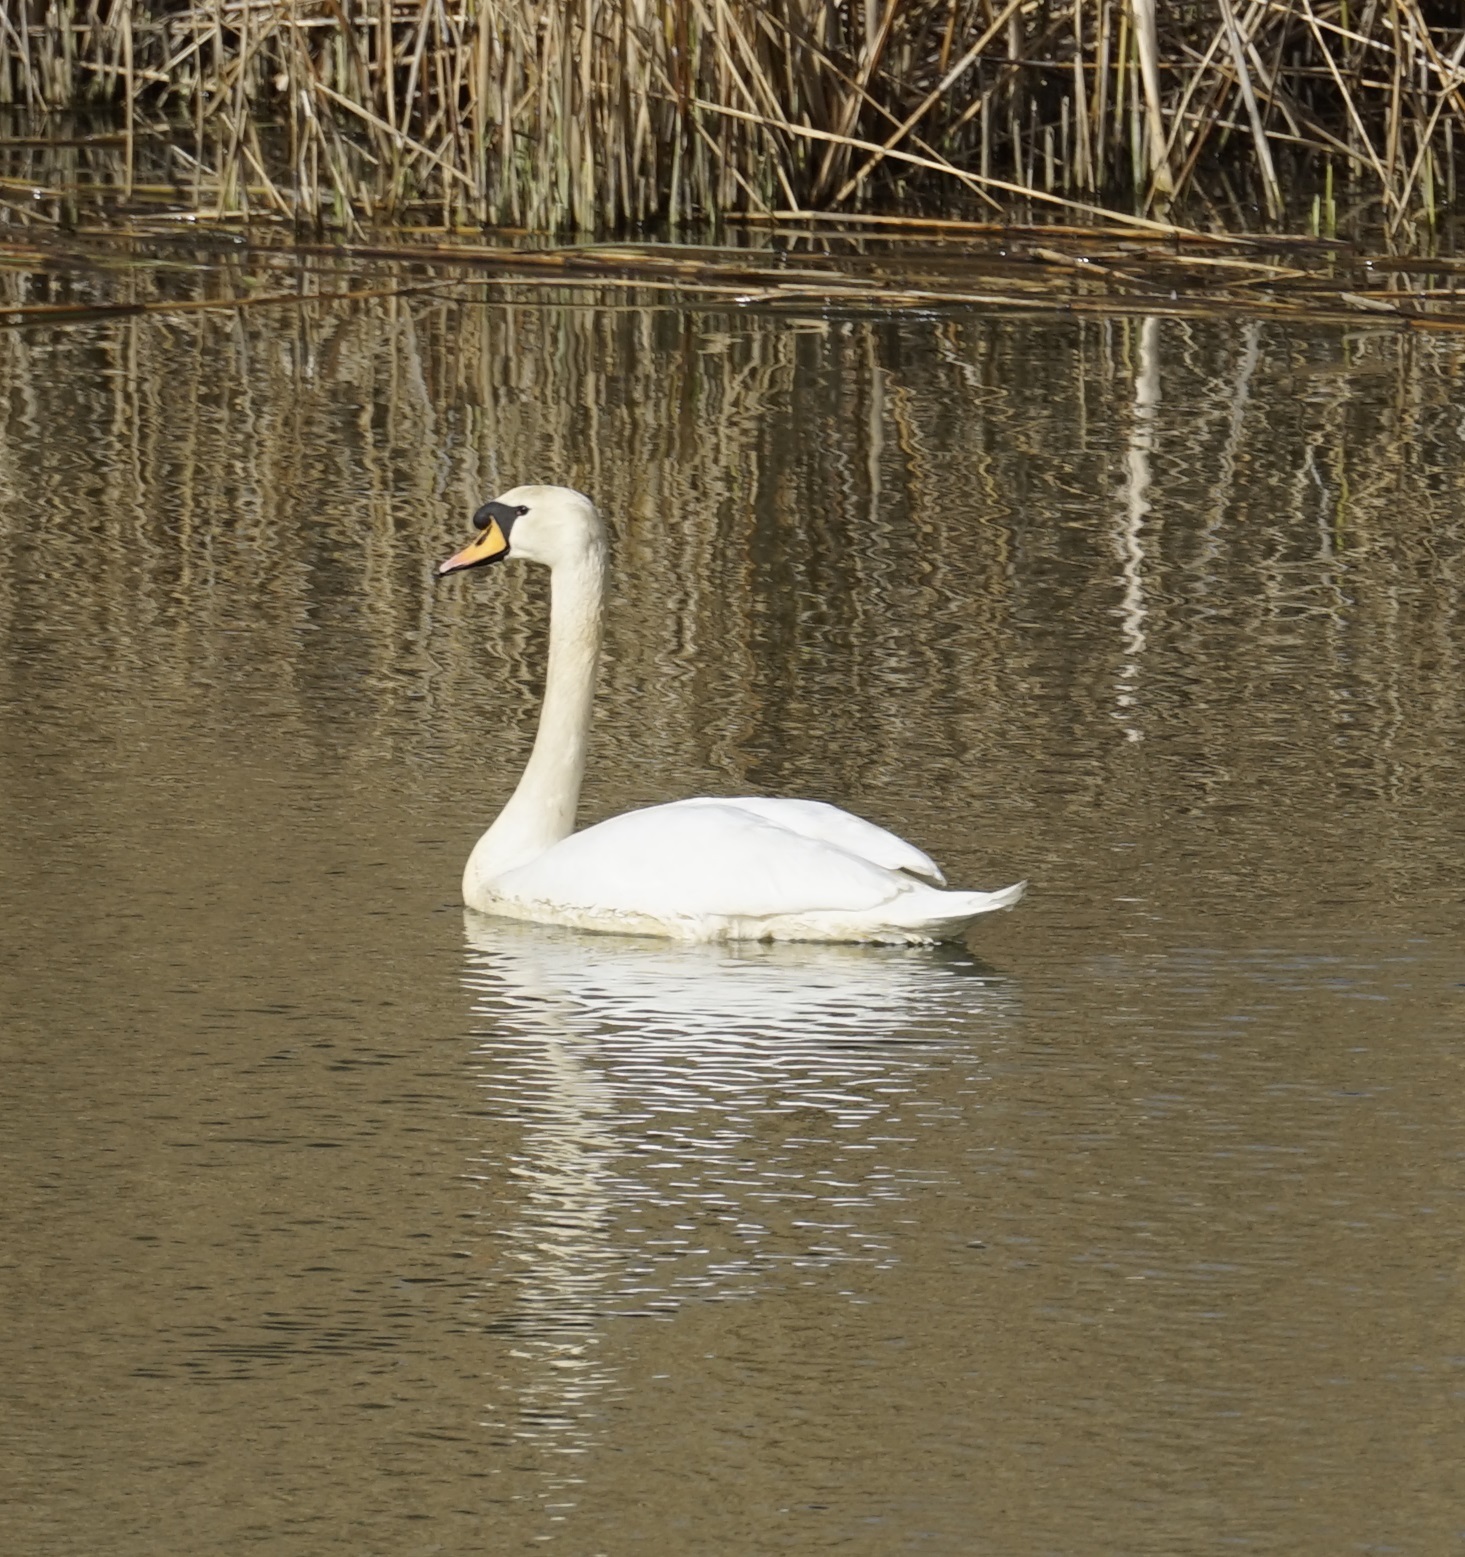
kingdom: Animalia
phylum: Chordata
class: Aves
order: Anseriformes
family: Anatidae
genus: Cygnus
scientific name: Cygnus olor
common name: Mute swan
